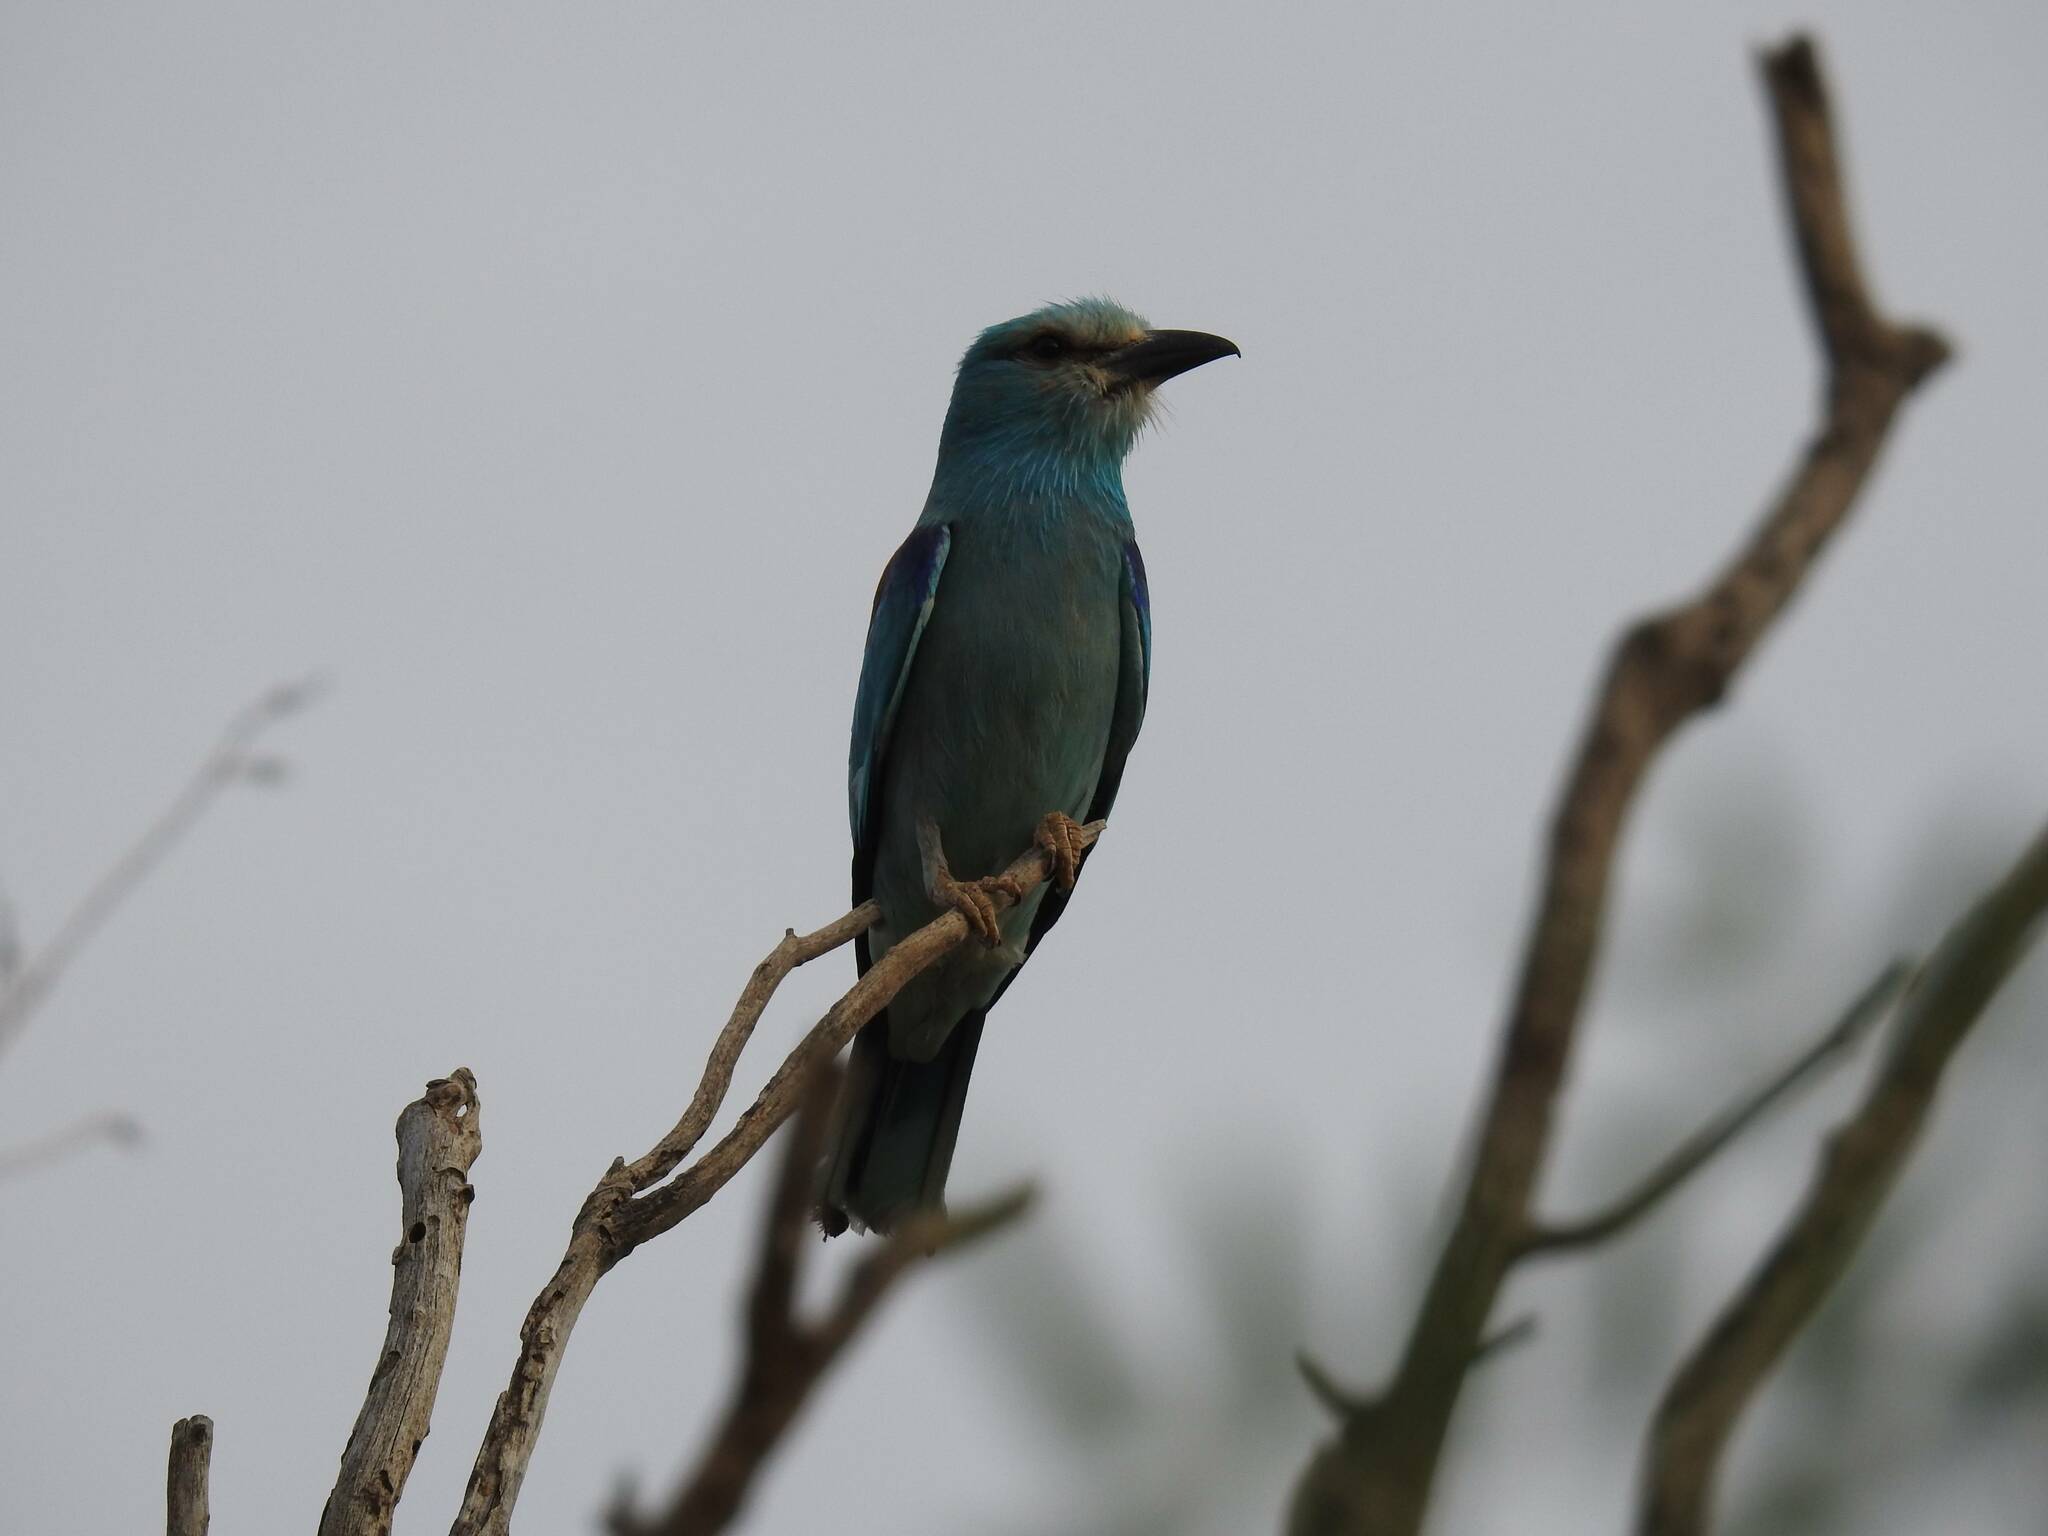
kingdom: Animalia
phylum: Chordata
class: Aves
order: Coraciiformes
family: Coraciidae
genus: Coracias
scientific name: Coracias garrulus
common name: European roller
